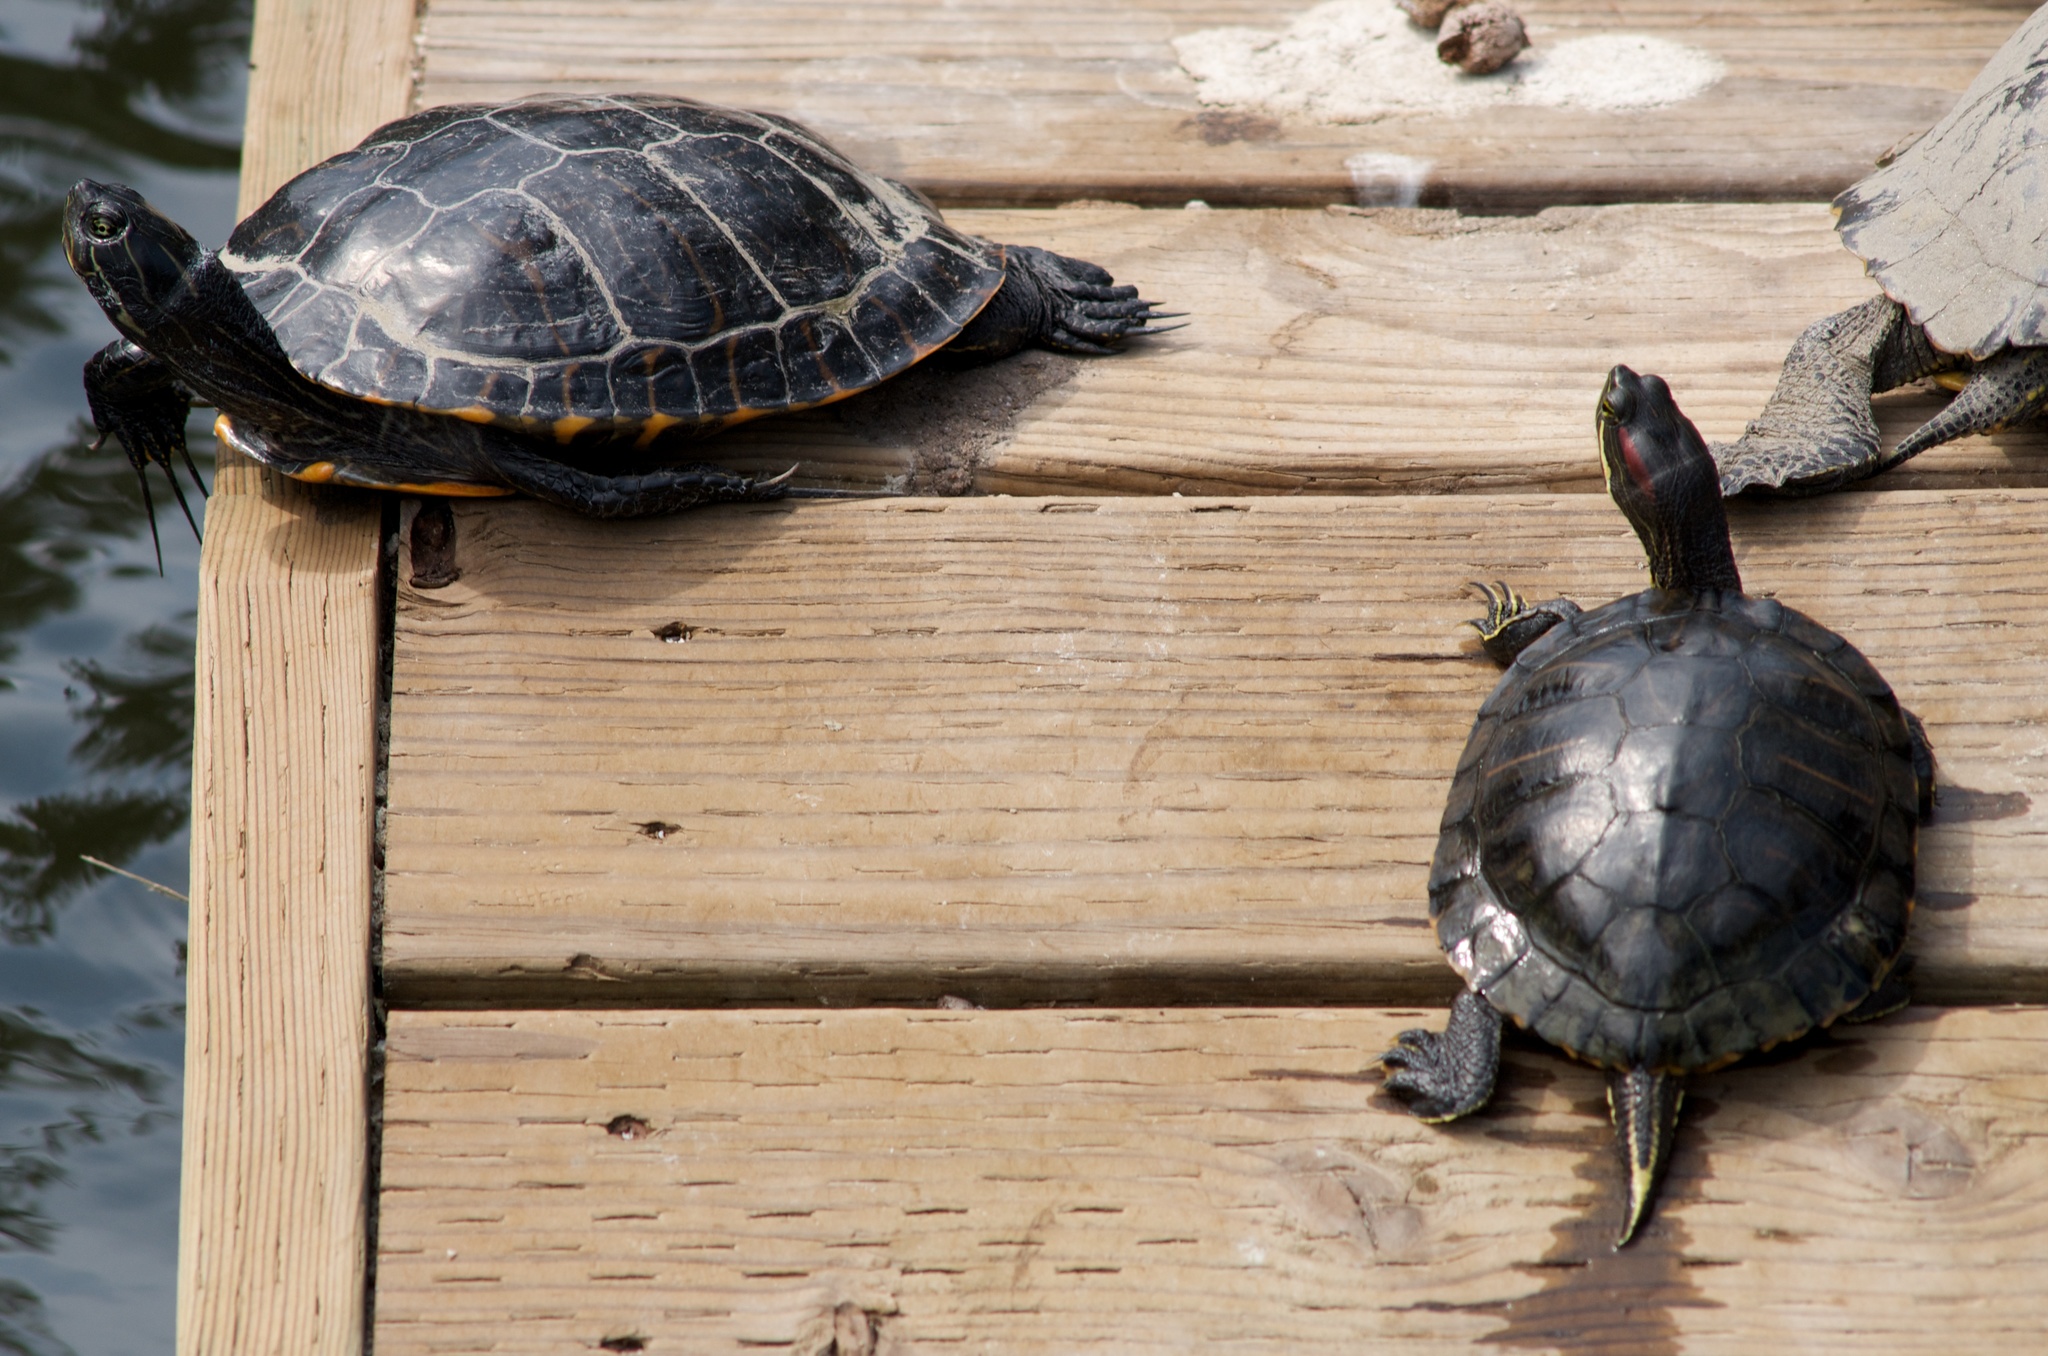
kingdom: Animalia
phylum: Chordata
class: Testudines
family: Emydidae
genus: Trachemys
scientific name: Trachemys scripta
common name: Slider
